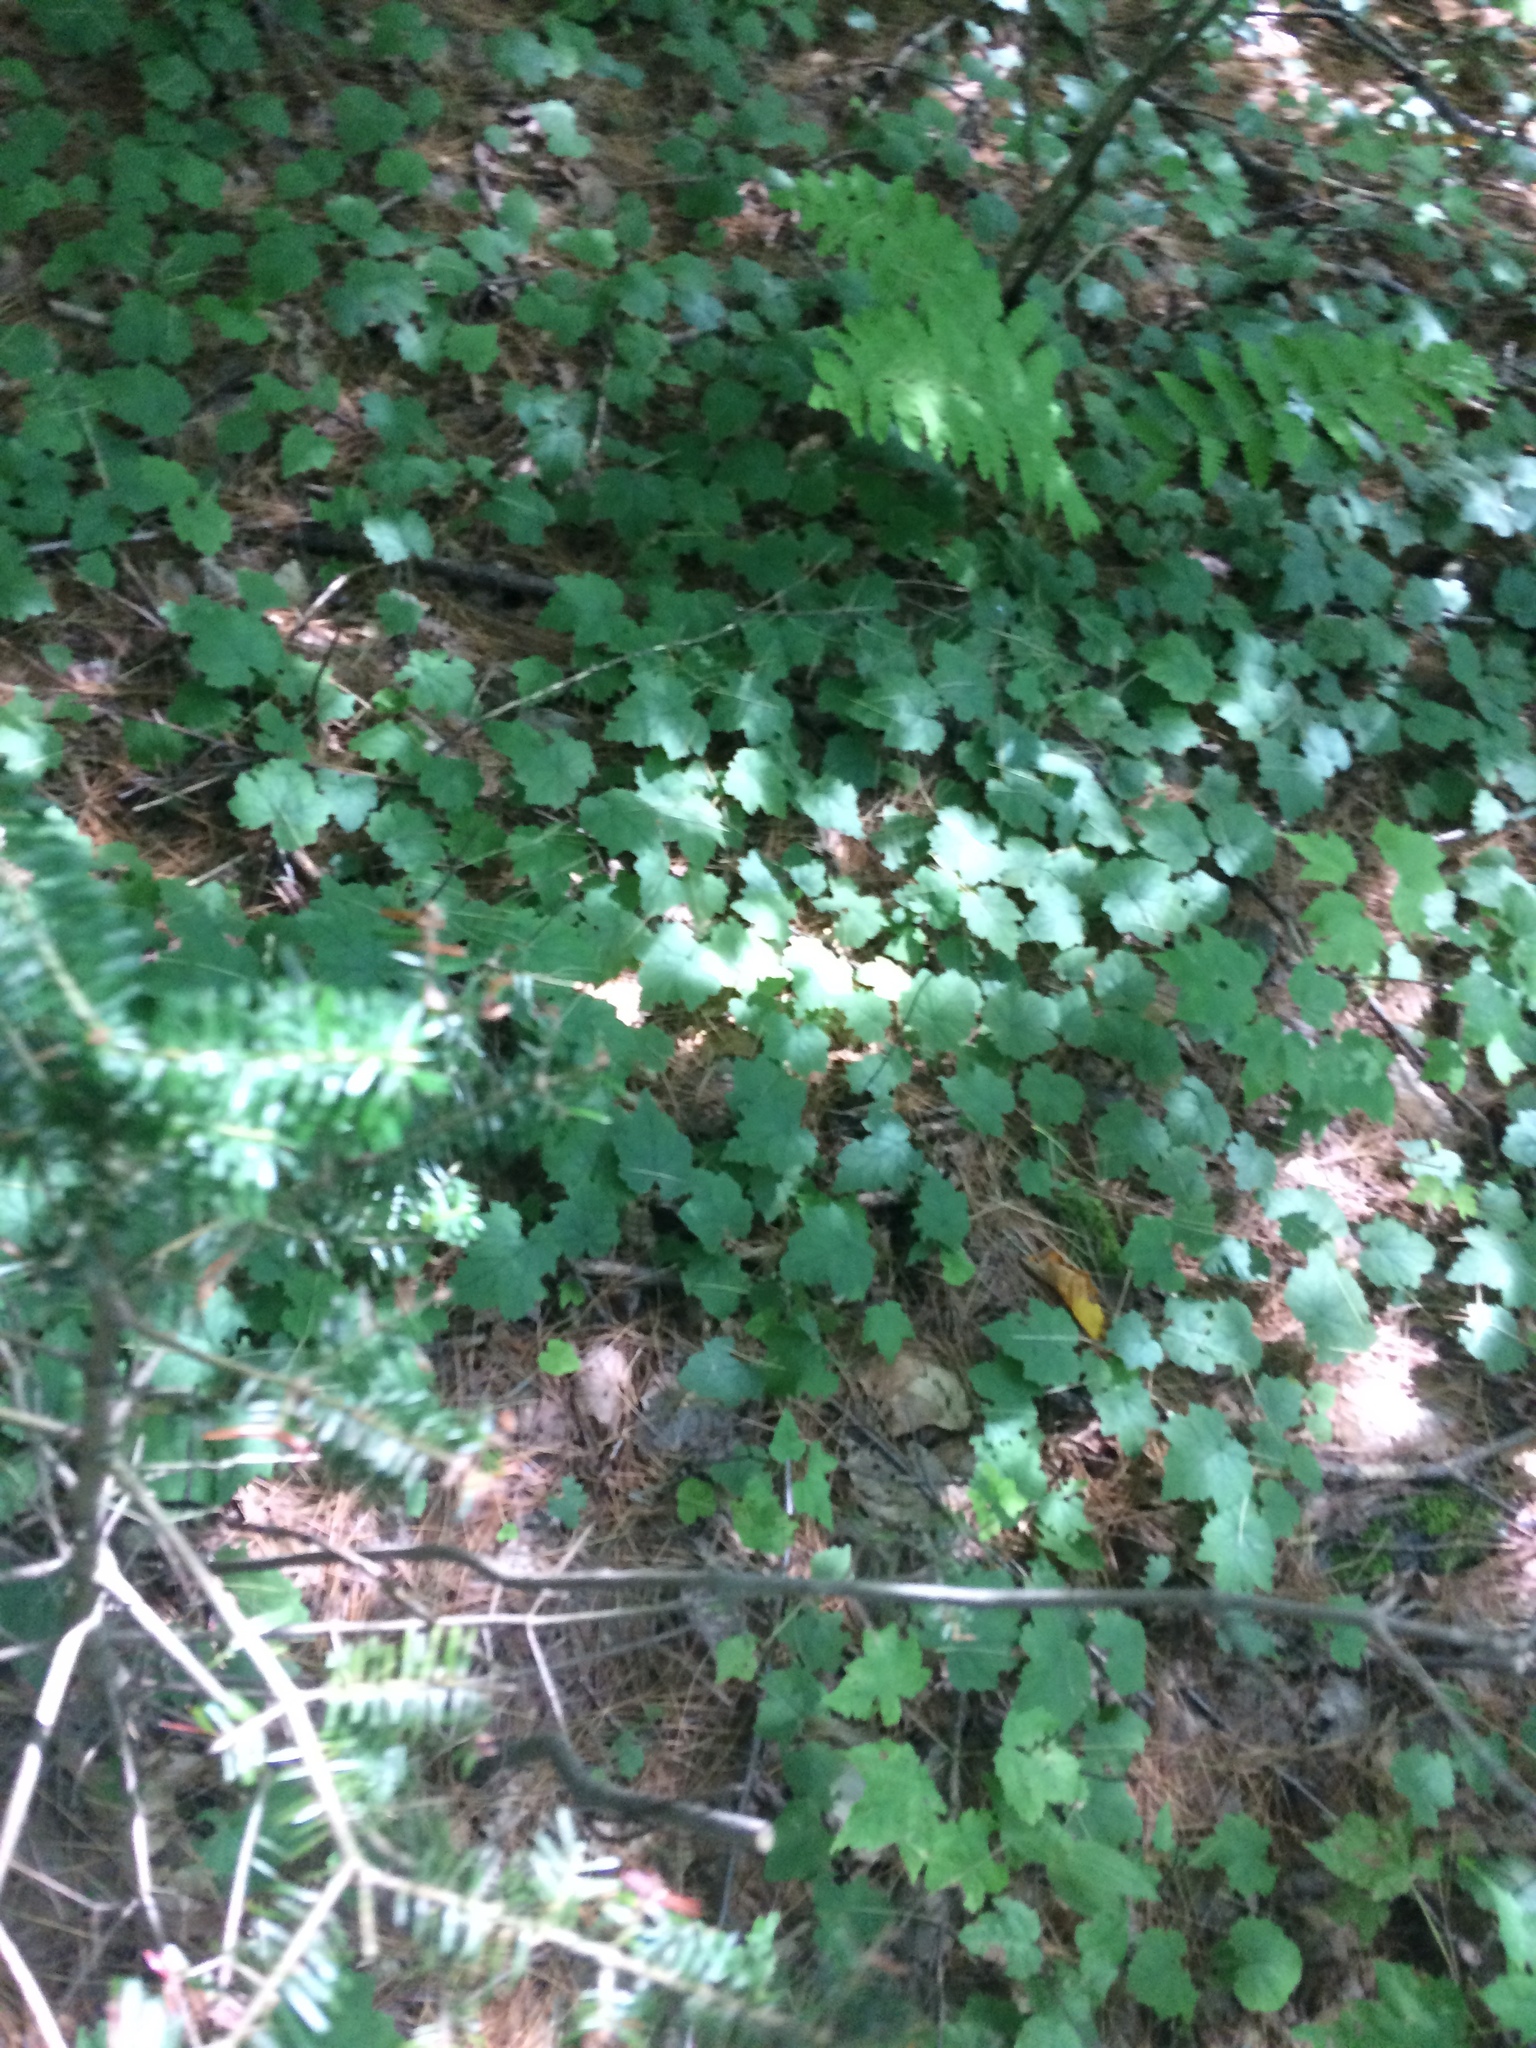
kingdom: Plantae
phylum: Tracheophyta
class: Magnoliopsida
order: Saxifragales
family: Saxifragaceae
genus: Tiarella
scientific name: Tiarella stolonifera
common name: Stoloniferous foamflower
